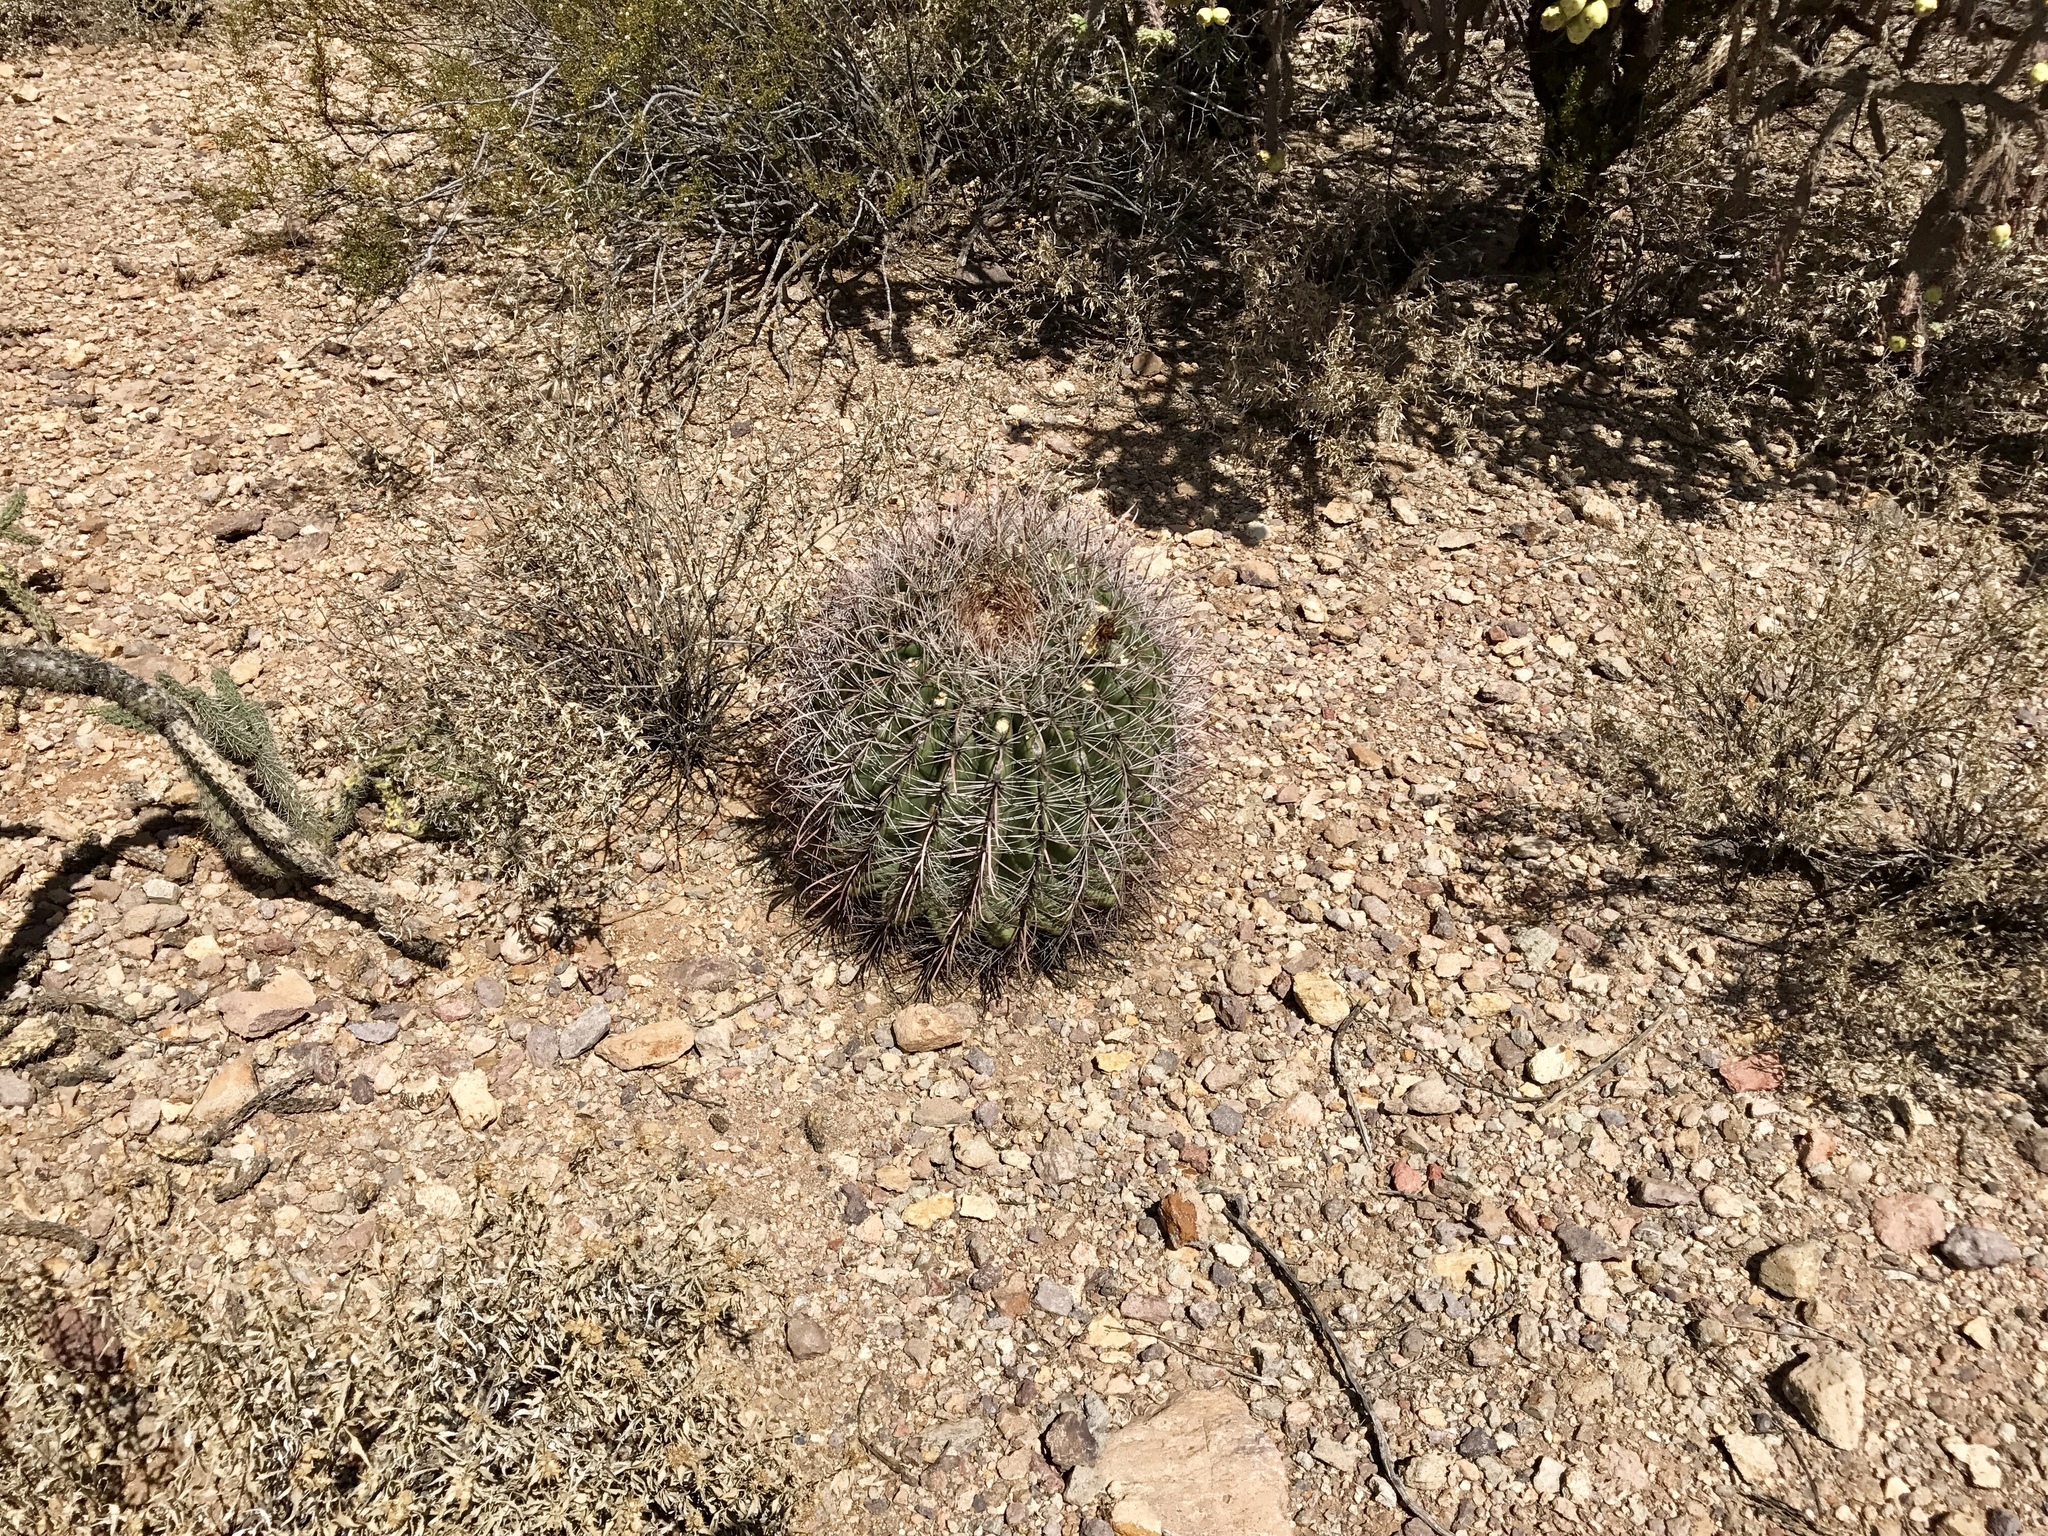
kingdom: Plantae
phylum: Tracheophyta
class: Magnoliopsida
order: Caryophyllales
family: Cactaceae
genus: Ferocactus
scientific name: Ferocactus wislizeni
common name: Candy barrel cactus
